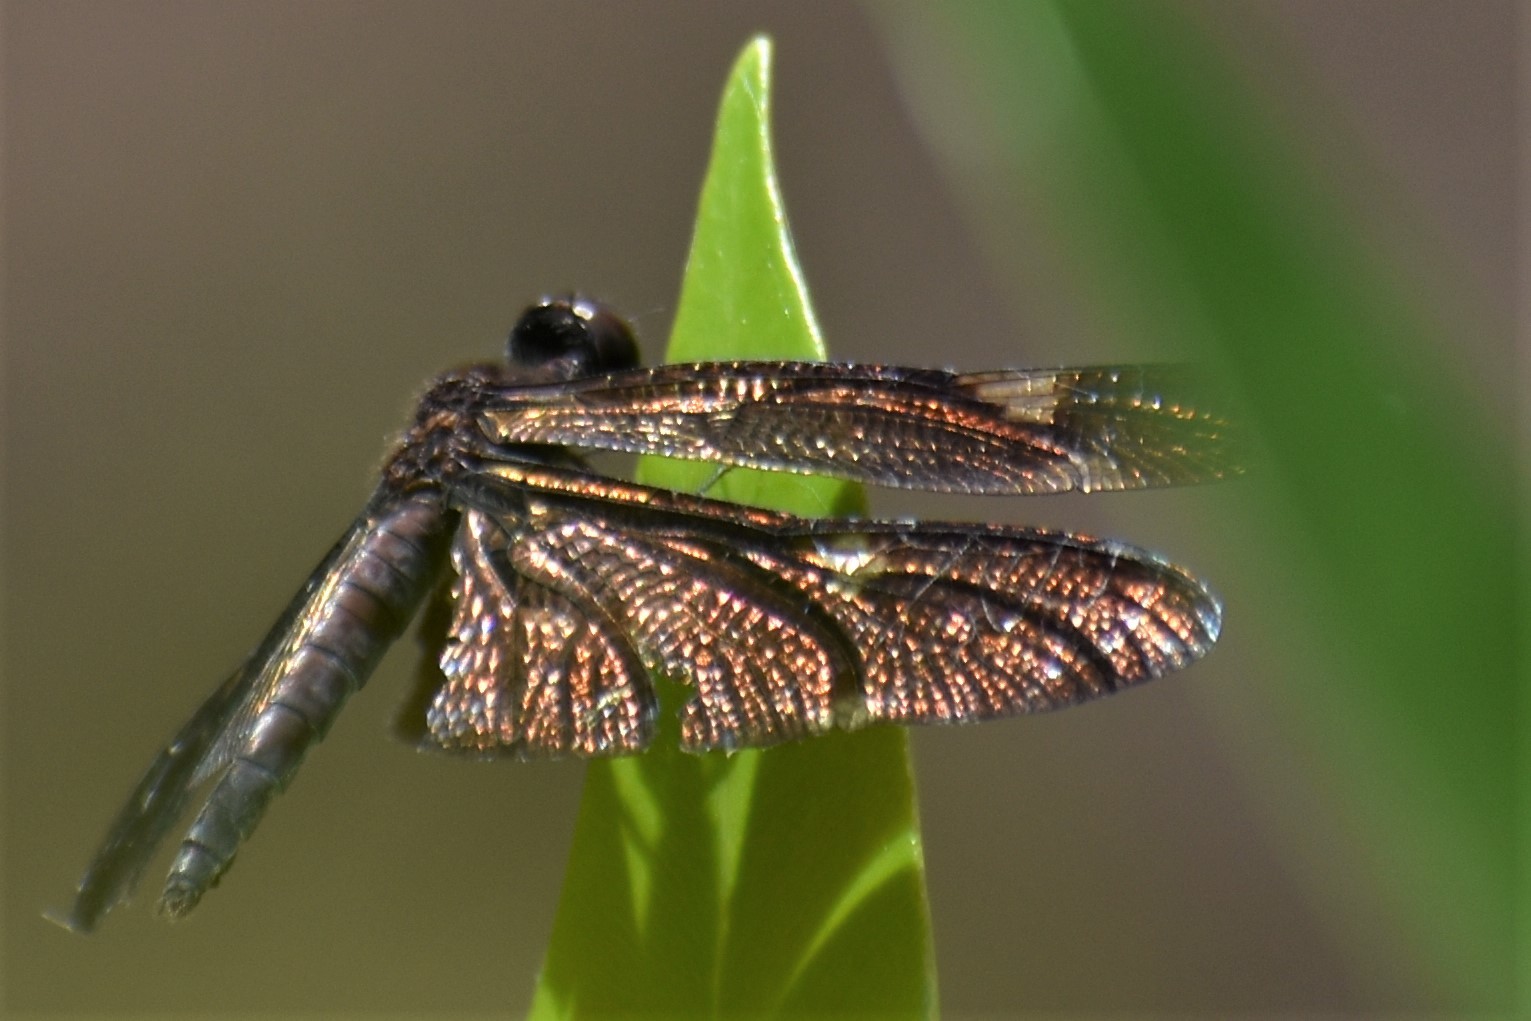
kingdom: Animalia
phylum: Arthropoda
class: Insecta
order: Odonata
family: Libellulidae
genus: Rhyothemis
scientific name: Rhyothemis princeps
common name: Sapphire flutterer
